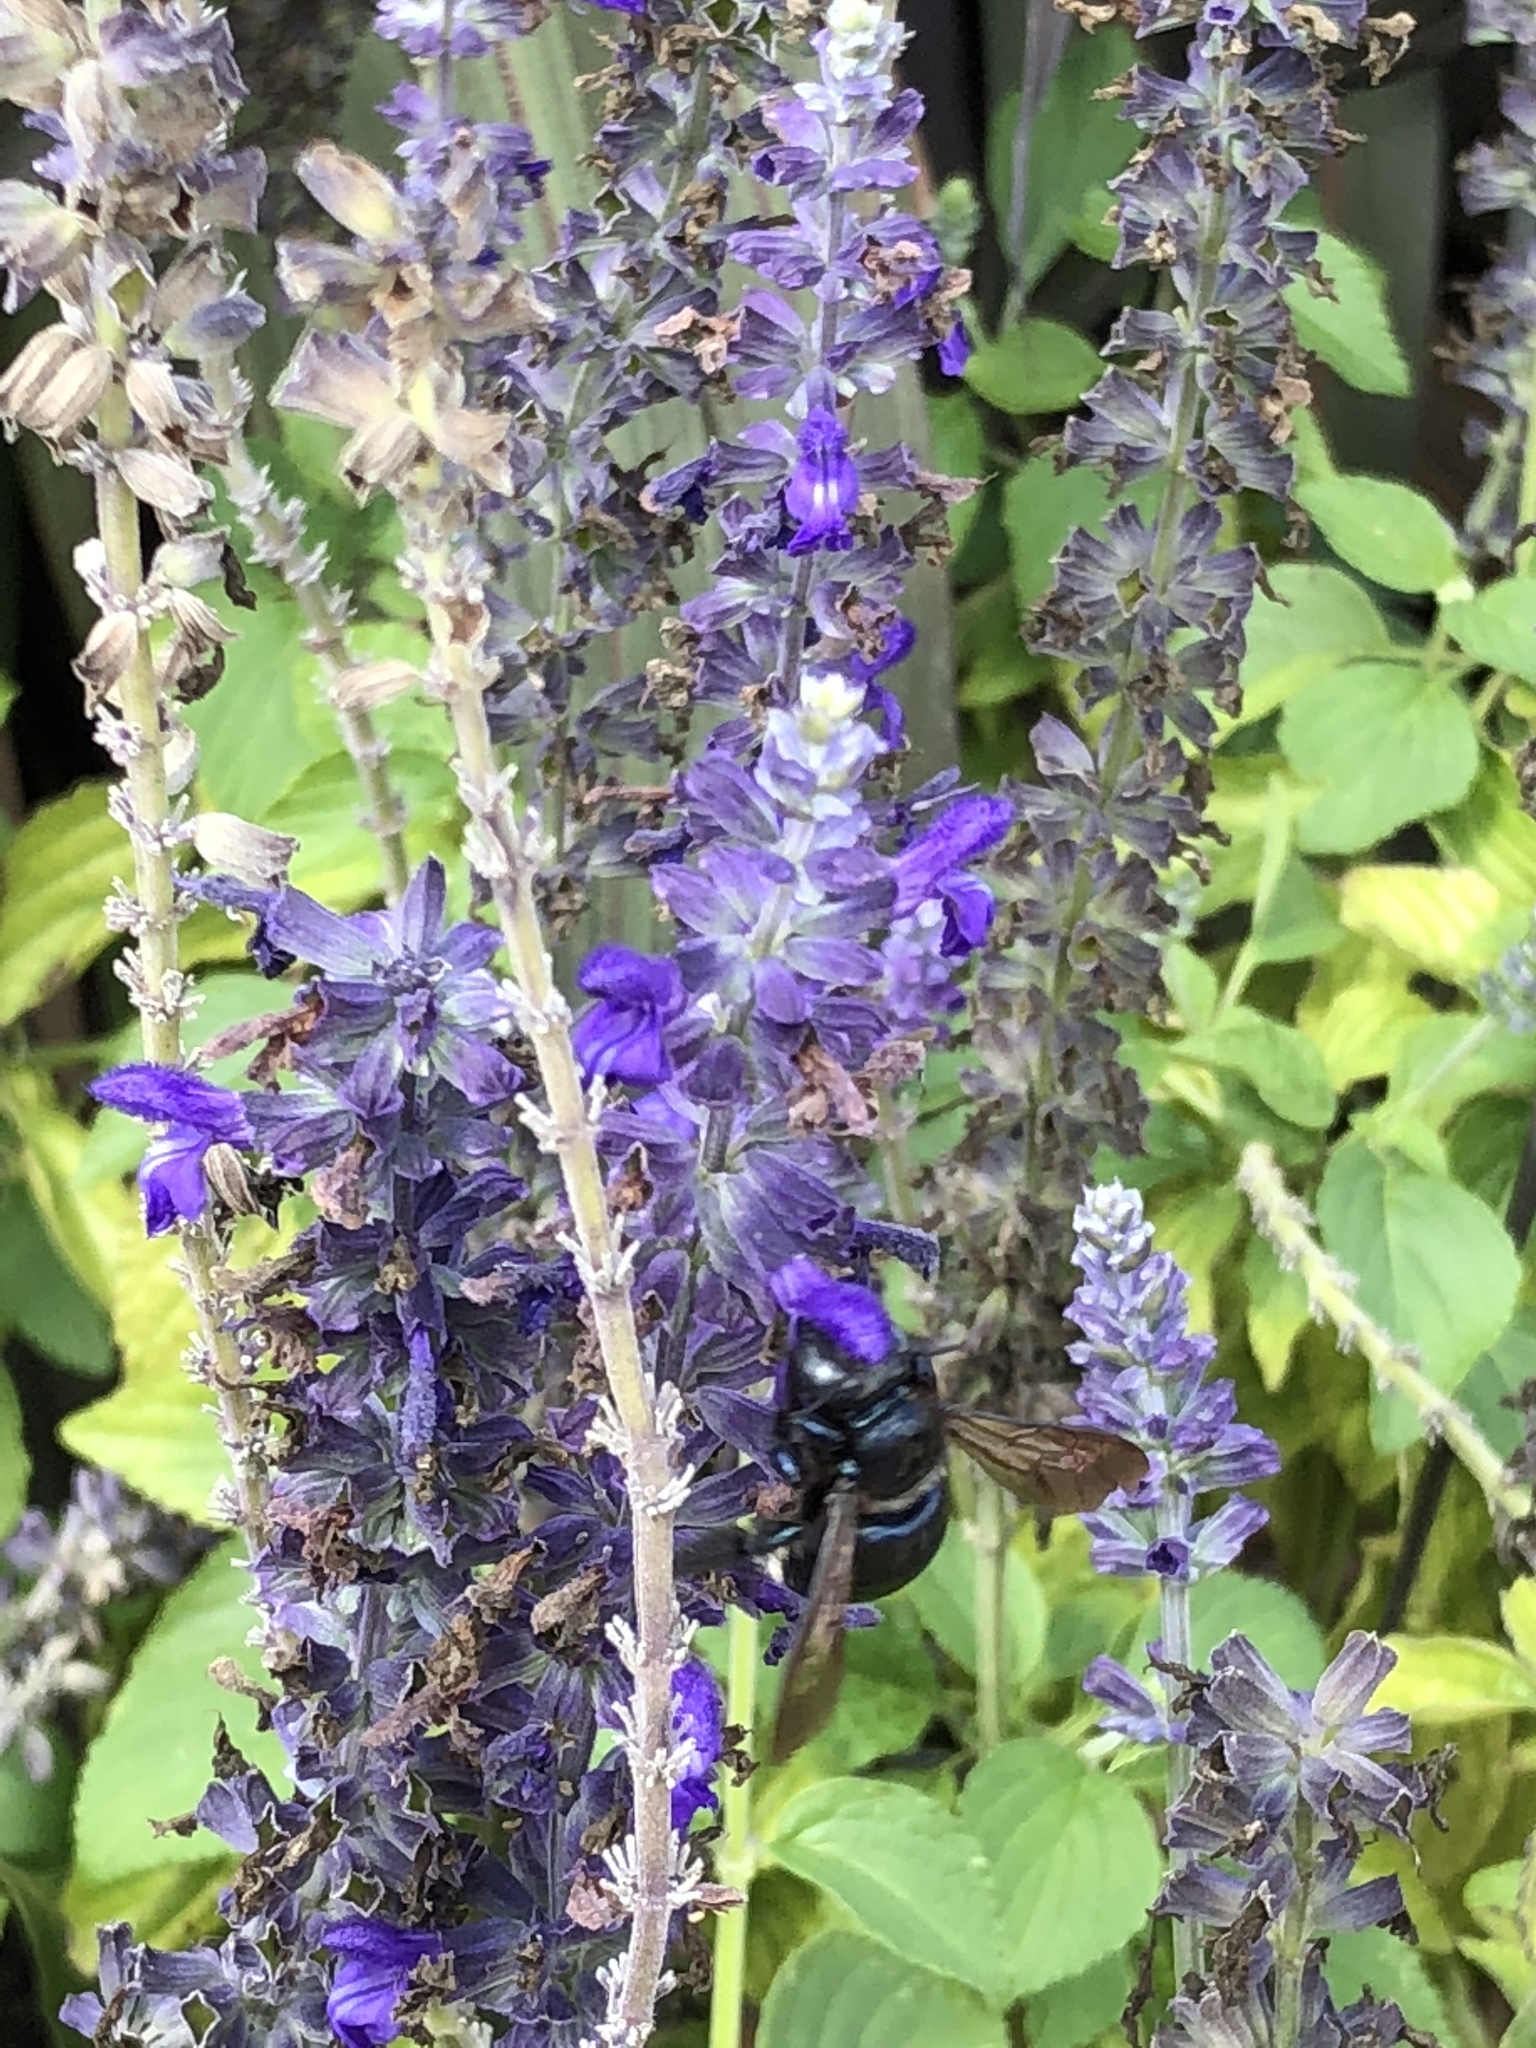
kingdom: Animalia
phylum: Arthropoda
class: Insecta
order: Hymenoptera
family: Apidae
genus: Xylocopa
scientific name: Xylocopa micans
